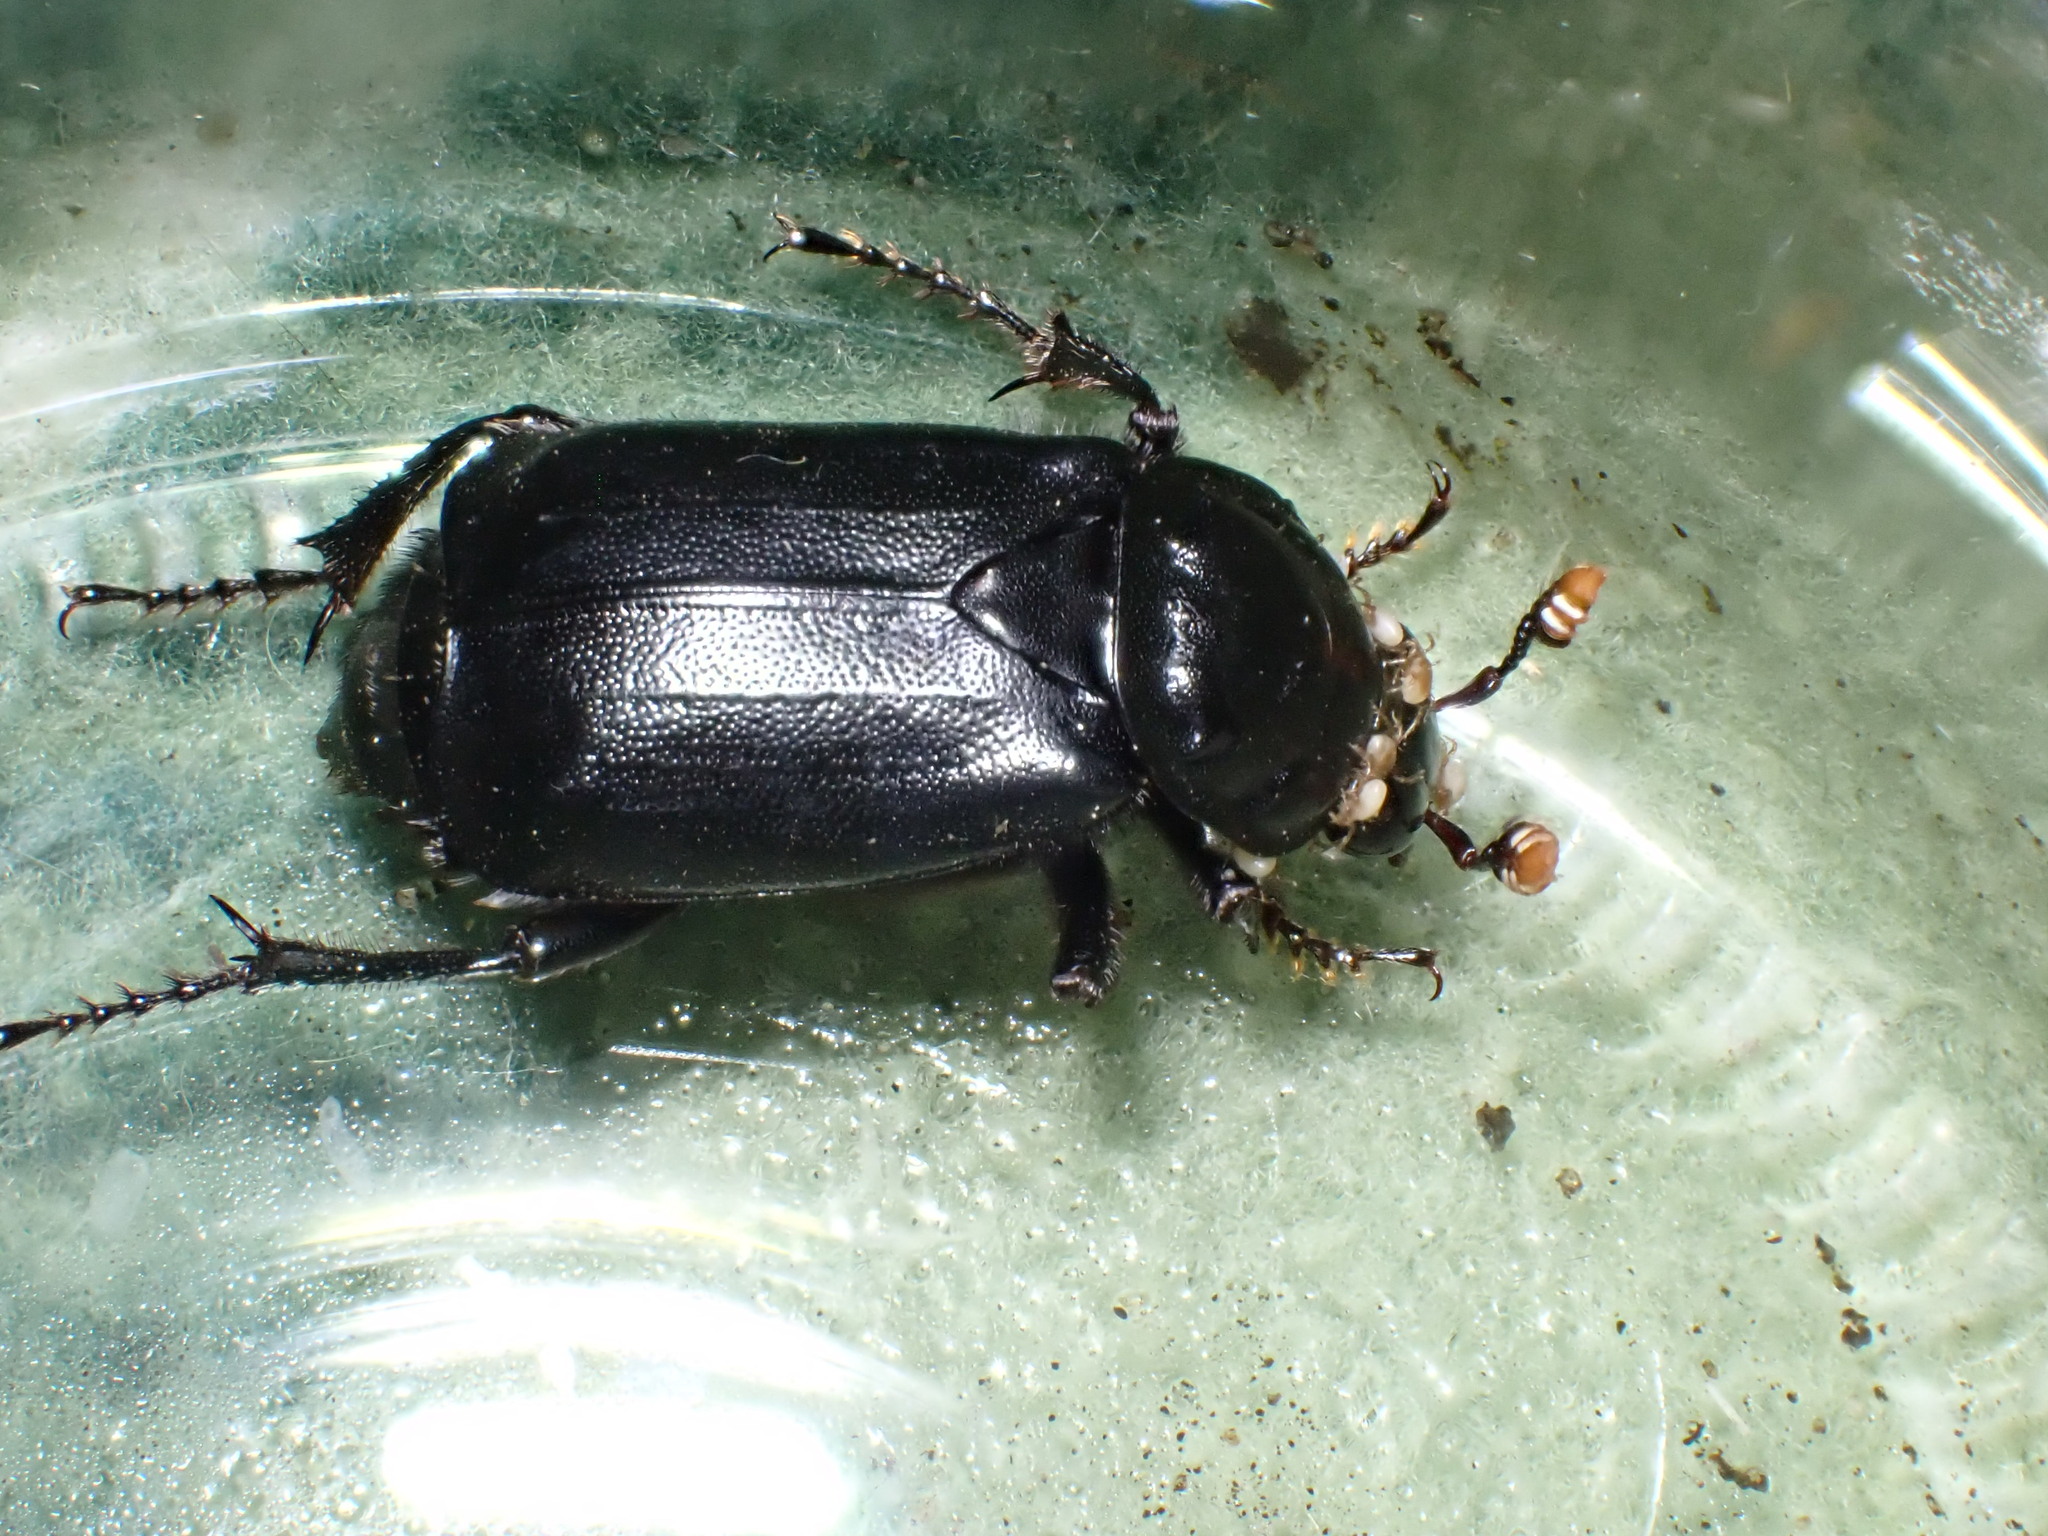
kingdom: Animalia
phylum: Arthropoda
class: Insecta
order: Coleoptera
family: Staphylinidae
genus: Nicrophorus
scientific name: Nicrophorus humator
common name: Black sexton beetle
